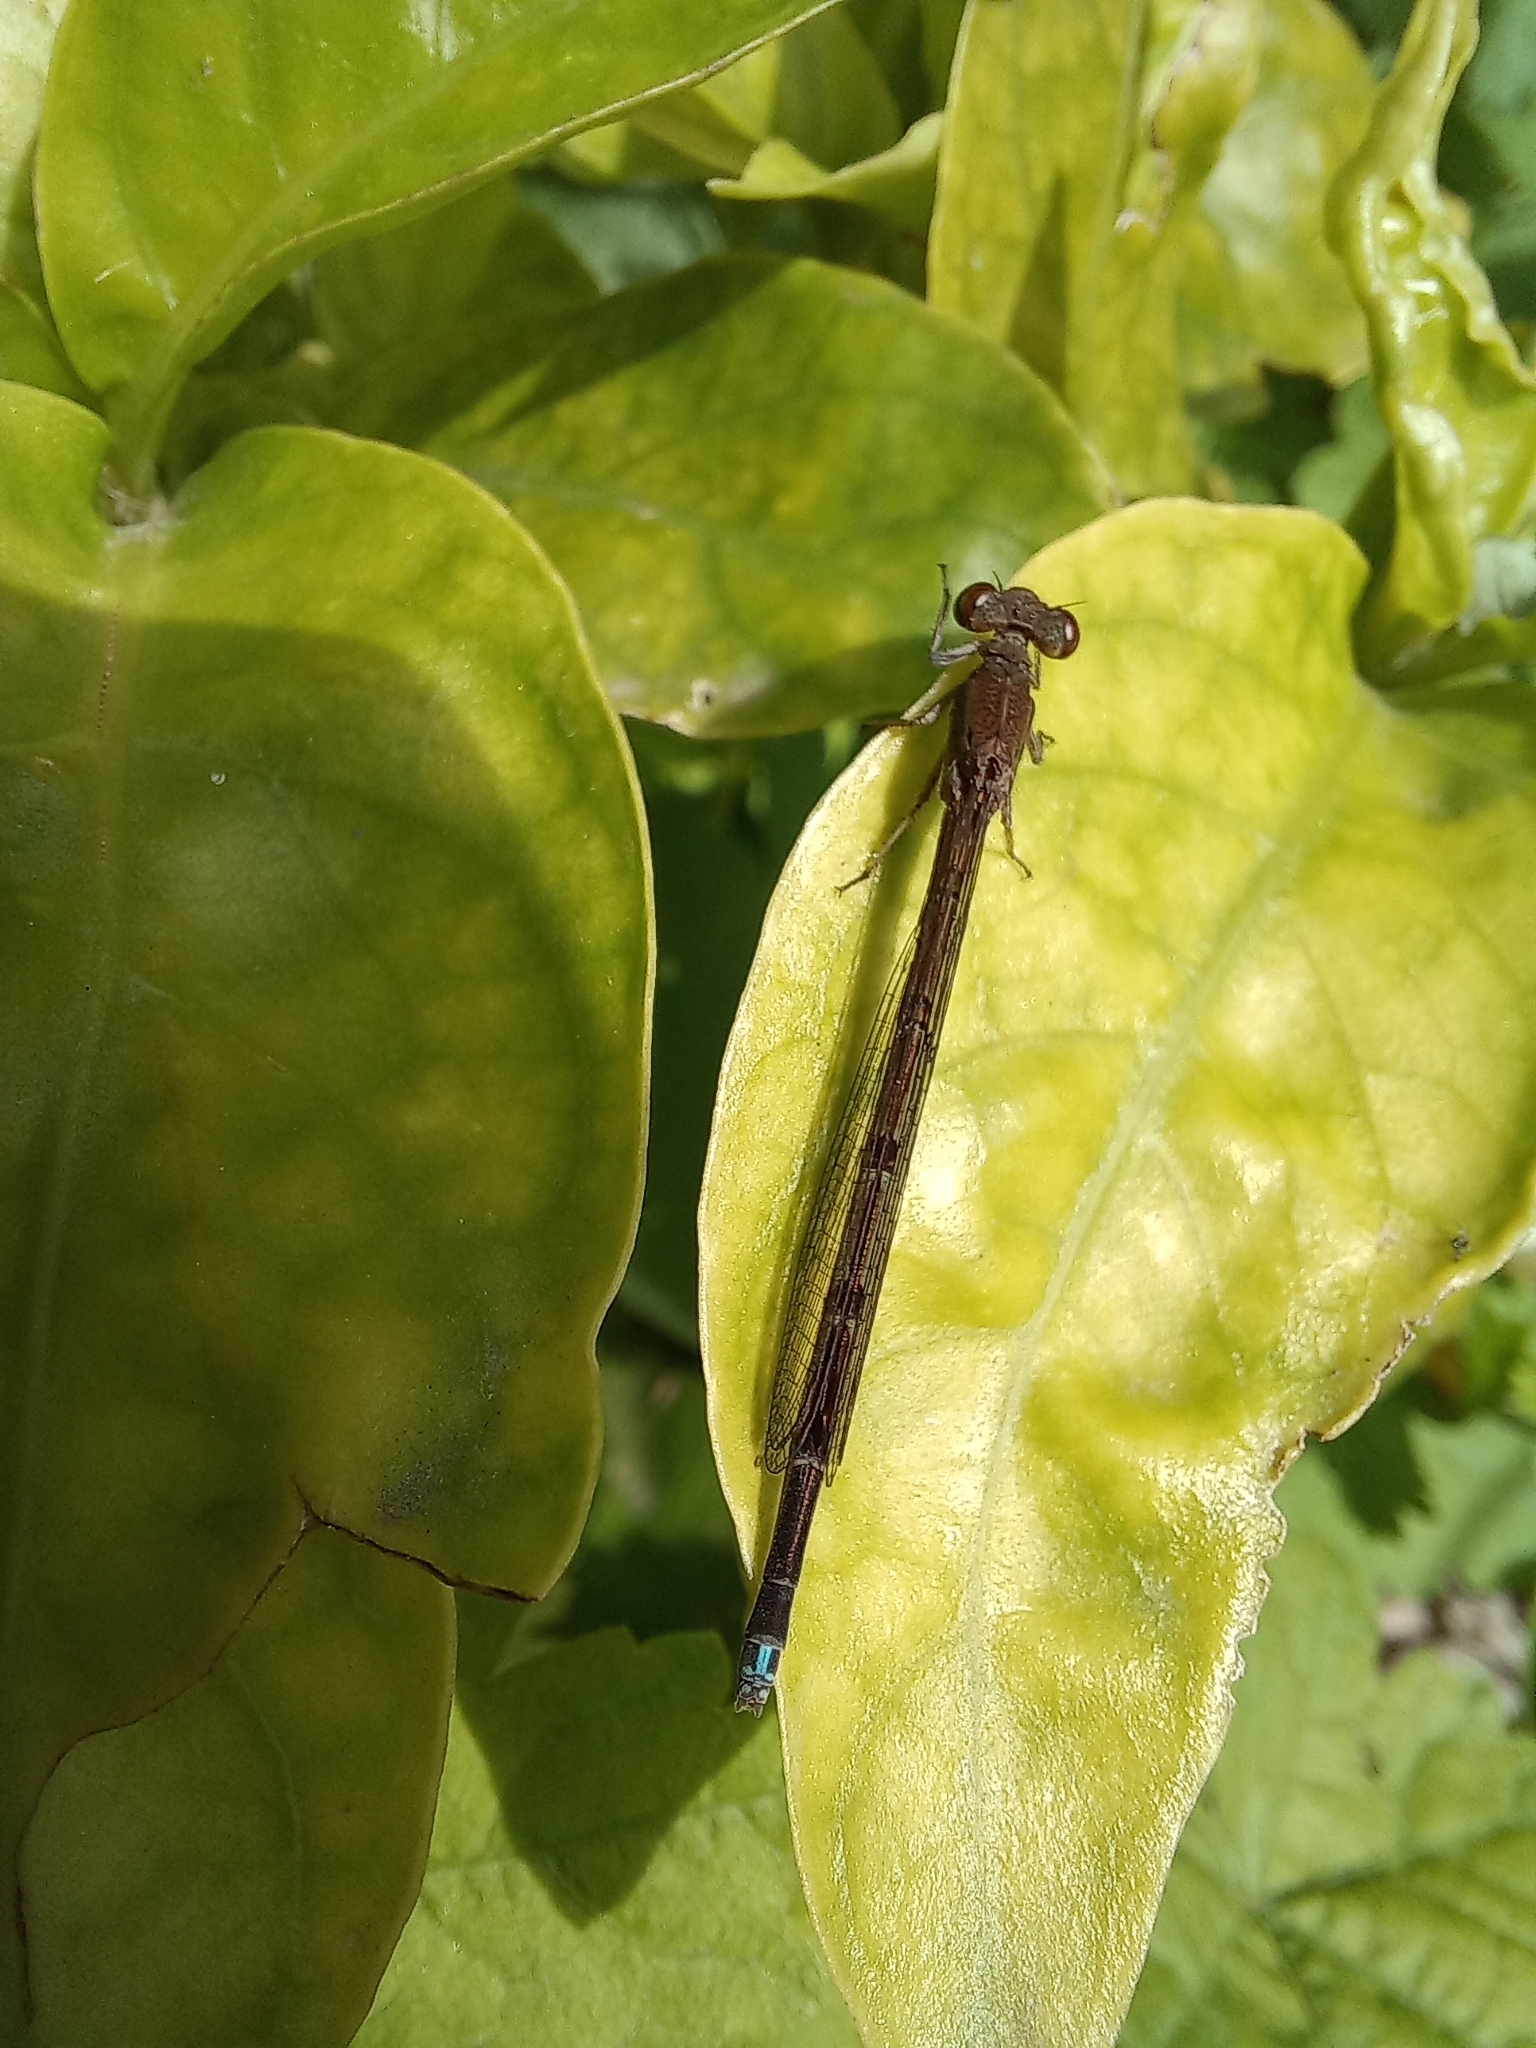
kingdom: Animalia
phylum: Arthropoda
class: Insecta
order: Odonata
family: Coenagrionidae
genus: Oxyagrion
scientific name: Oxyagrion terminale
